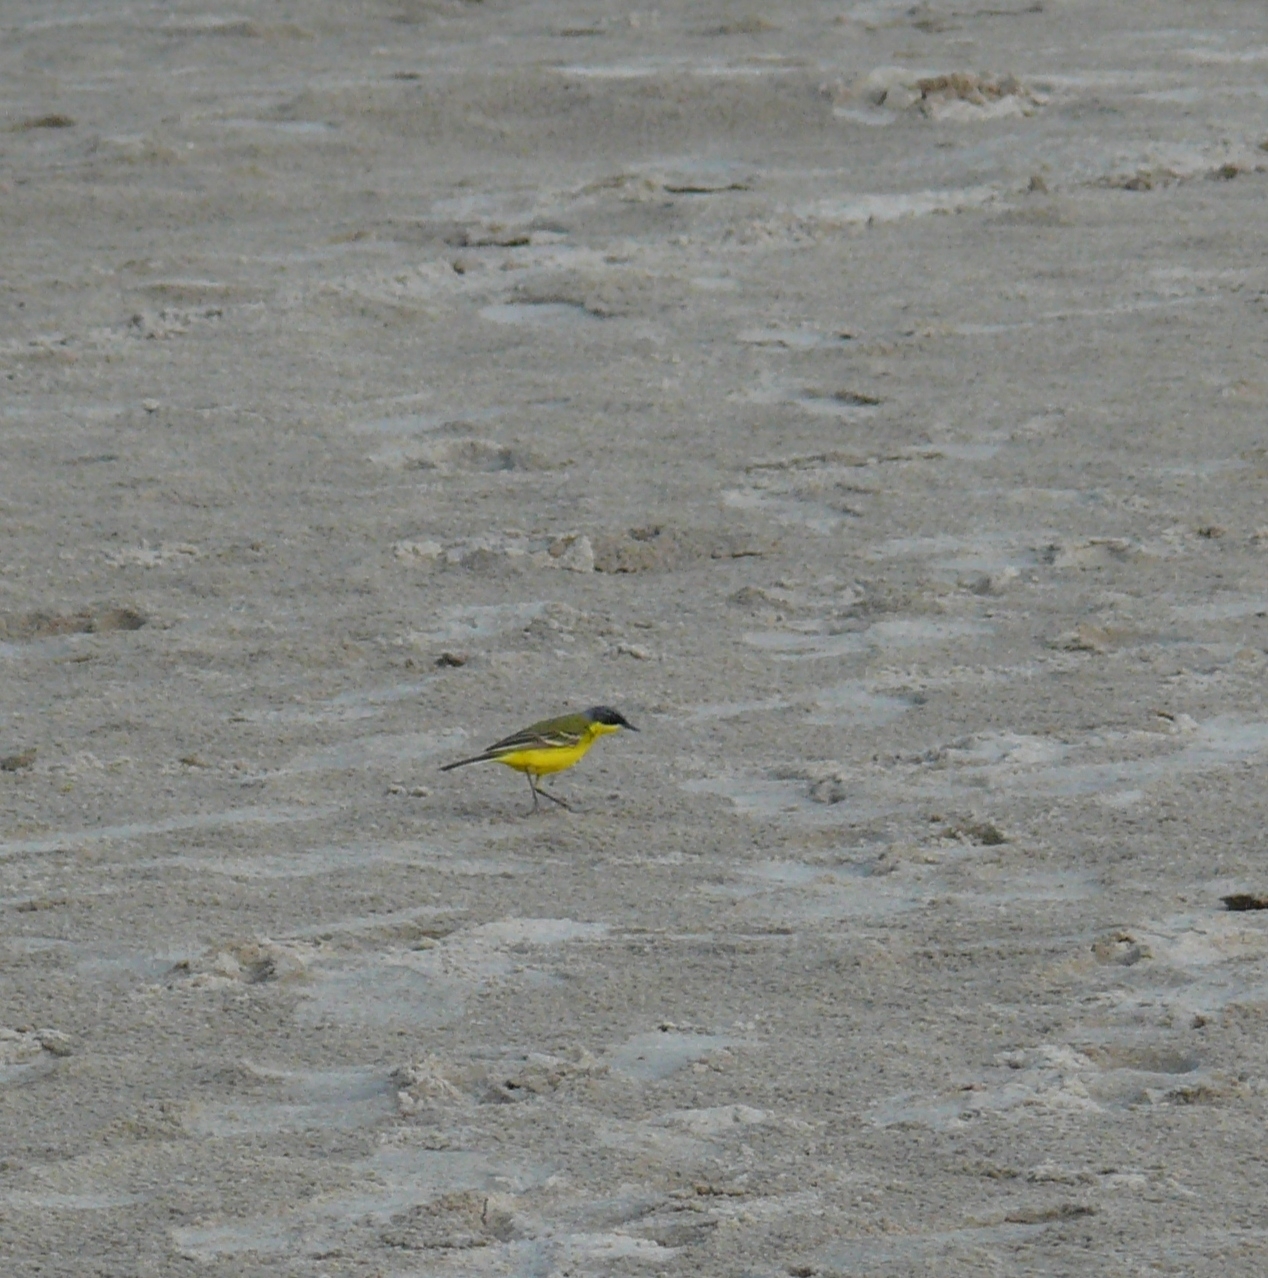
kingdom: Animalia
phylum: Chordata
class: Aves
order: Passeriformes
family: Motacillidae
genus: Motacilla
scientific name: Motacilla tschutschensis
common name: Eastern yellow wagtail
